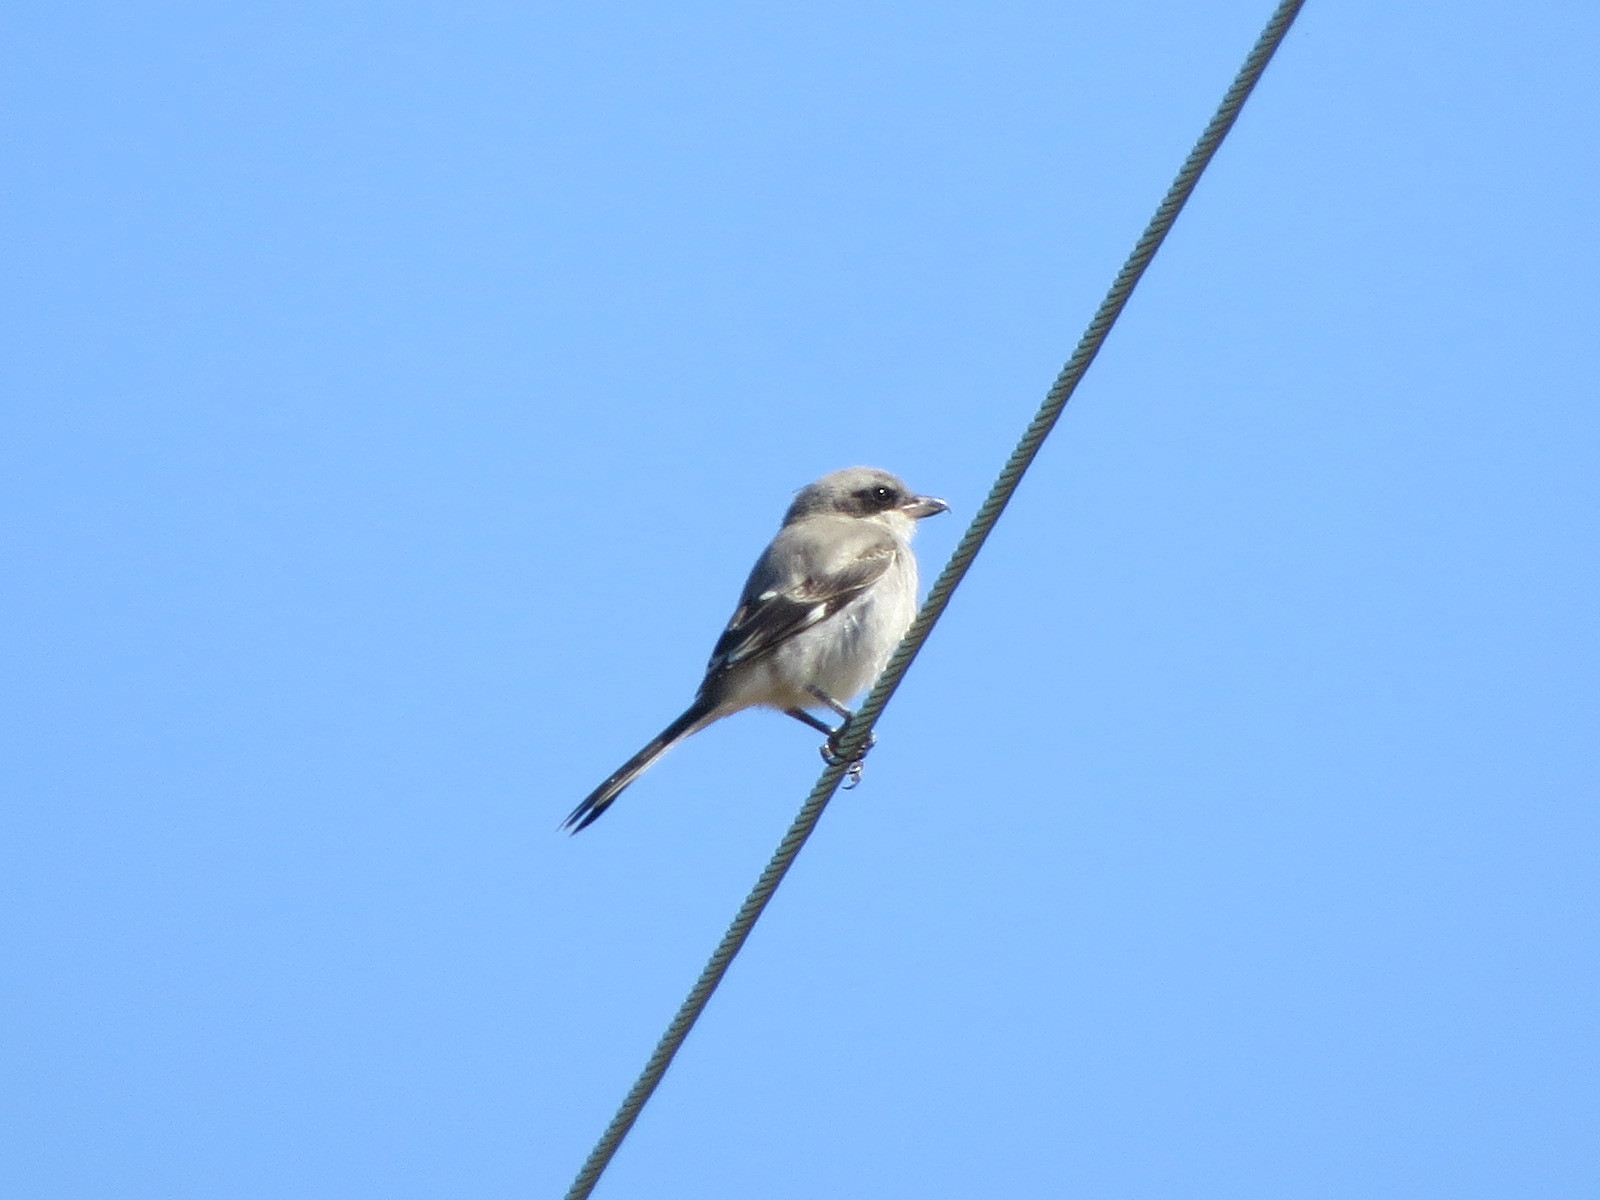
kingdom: Animalia
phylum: Chordata
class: Aves
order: Passeriformes
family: Laniidae
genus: Lanius
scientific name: Lanius ludovicianus
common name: Loggerhead shrike
